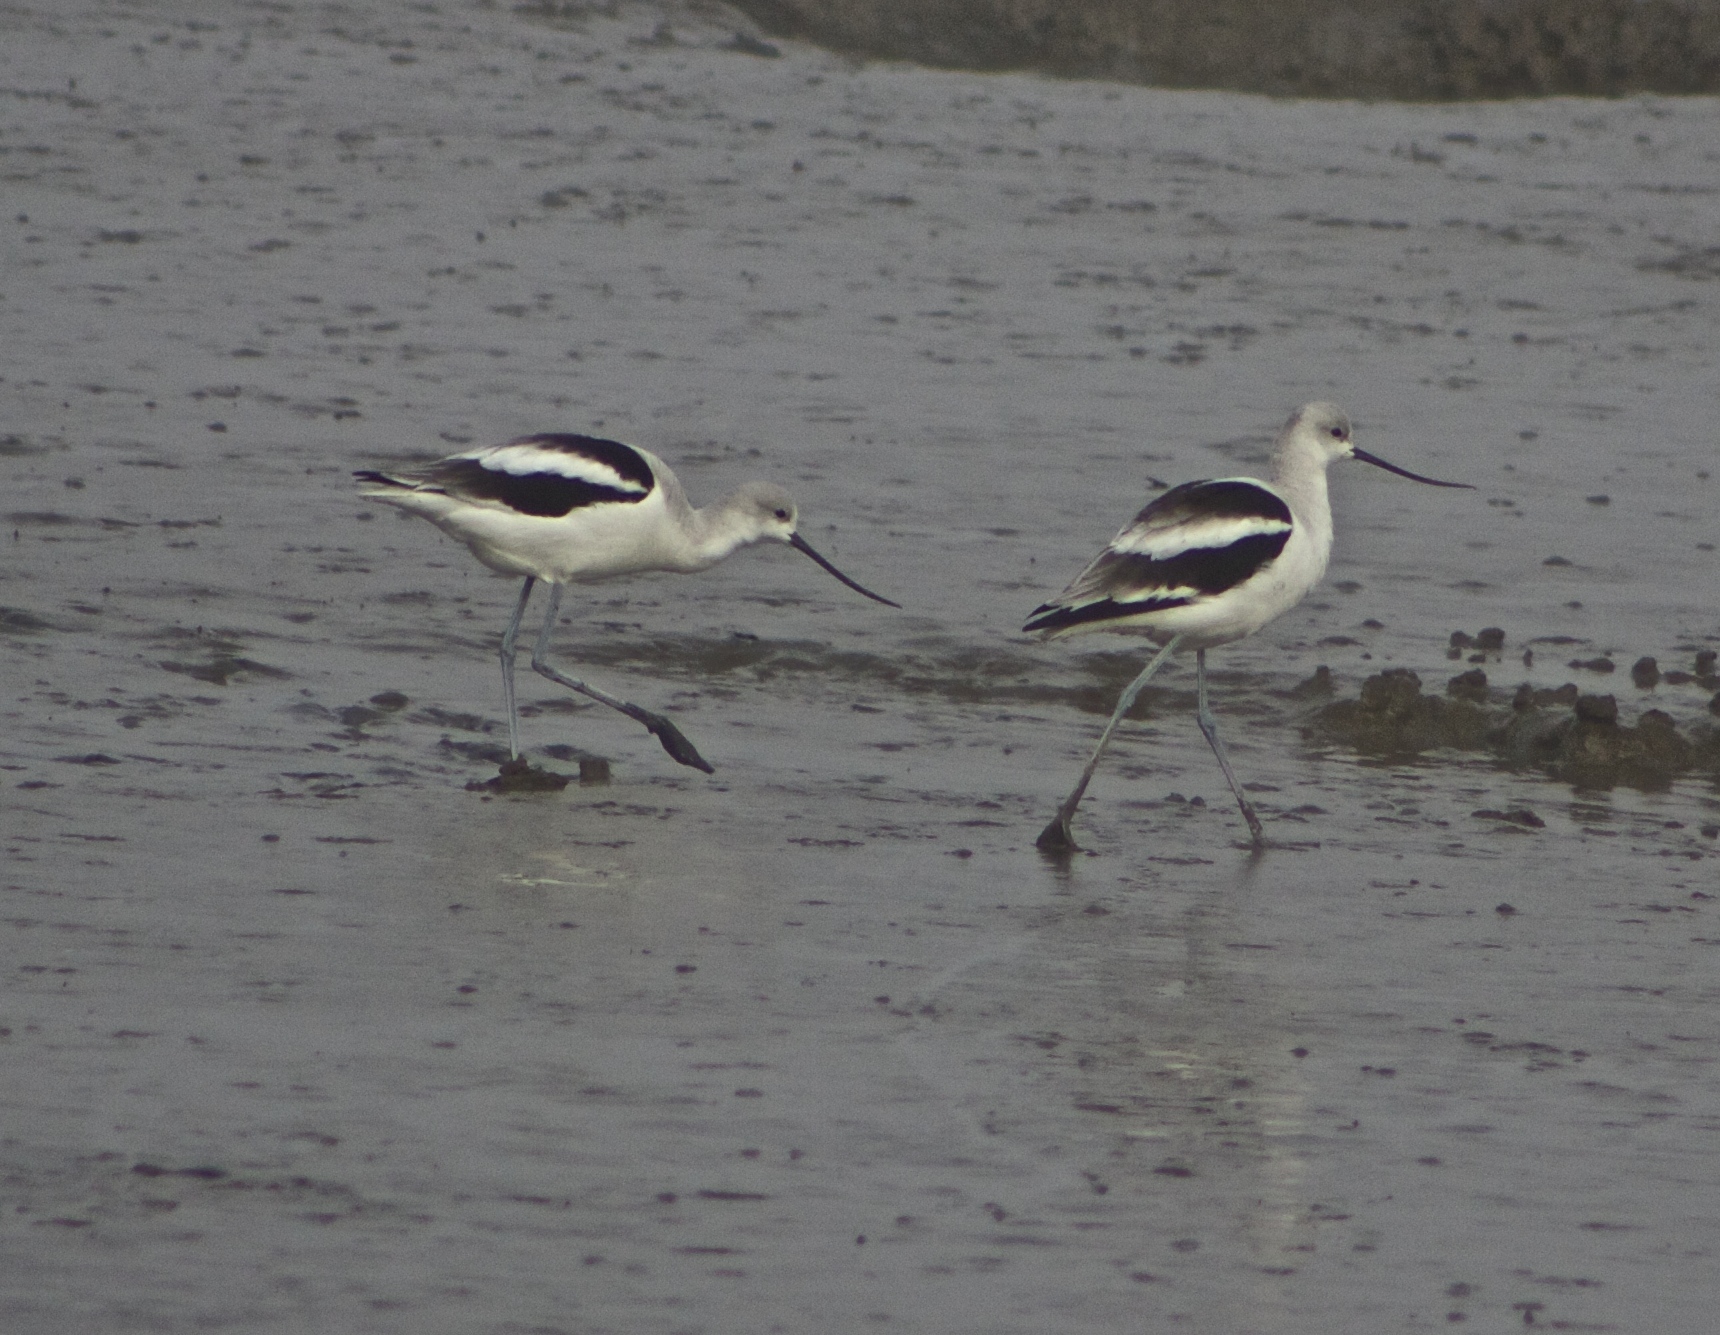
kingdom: Animalia
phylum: Chordata
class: Aves
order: Charadriiformes
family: Recurvirostridae
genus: Recurvirostra
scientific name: Recurvirostra americana
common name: American avocet
